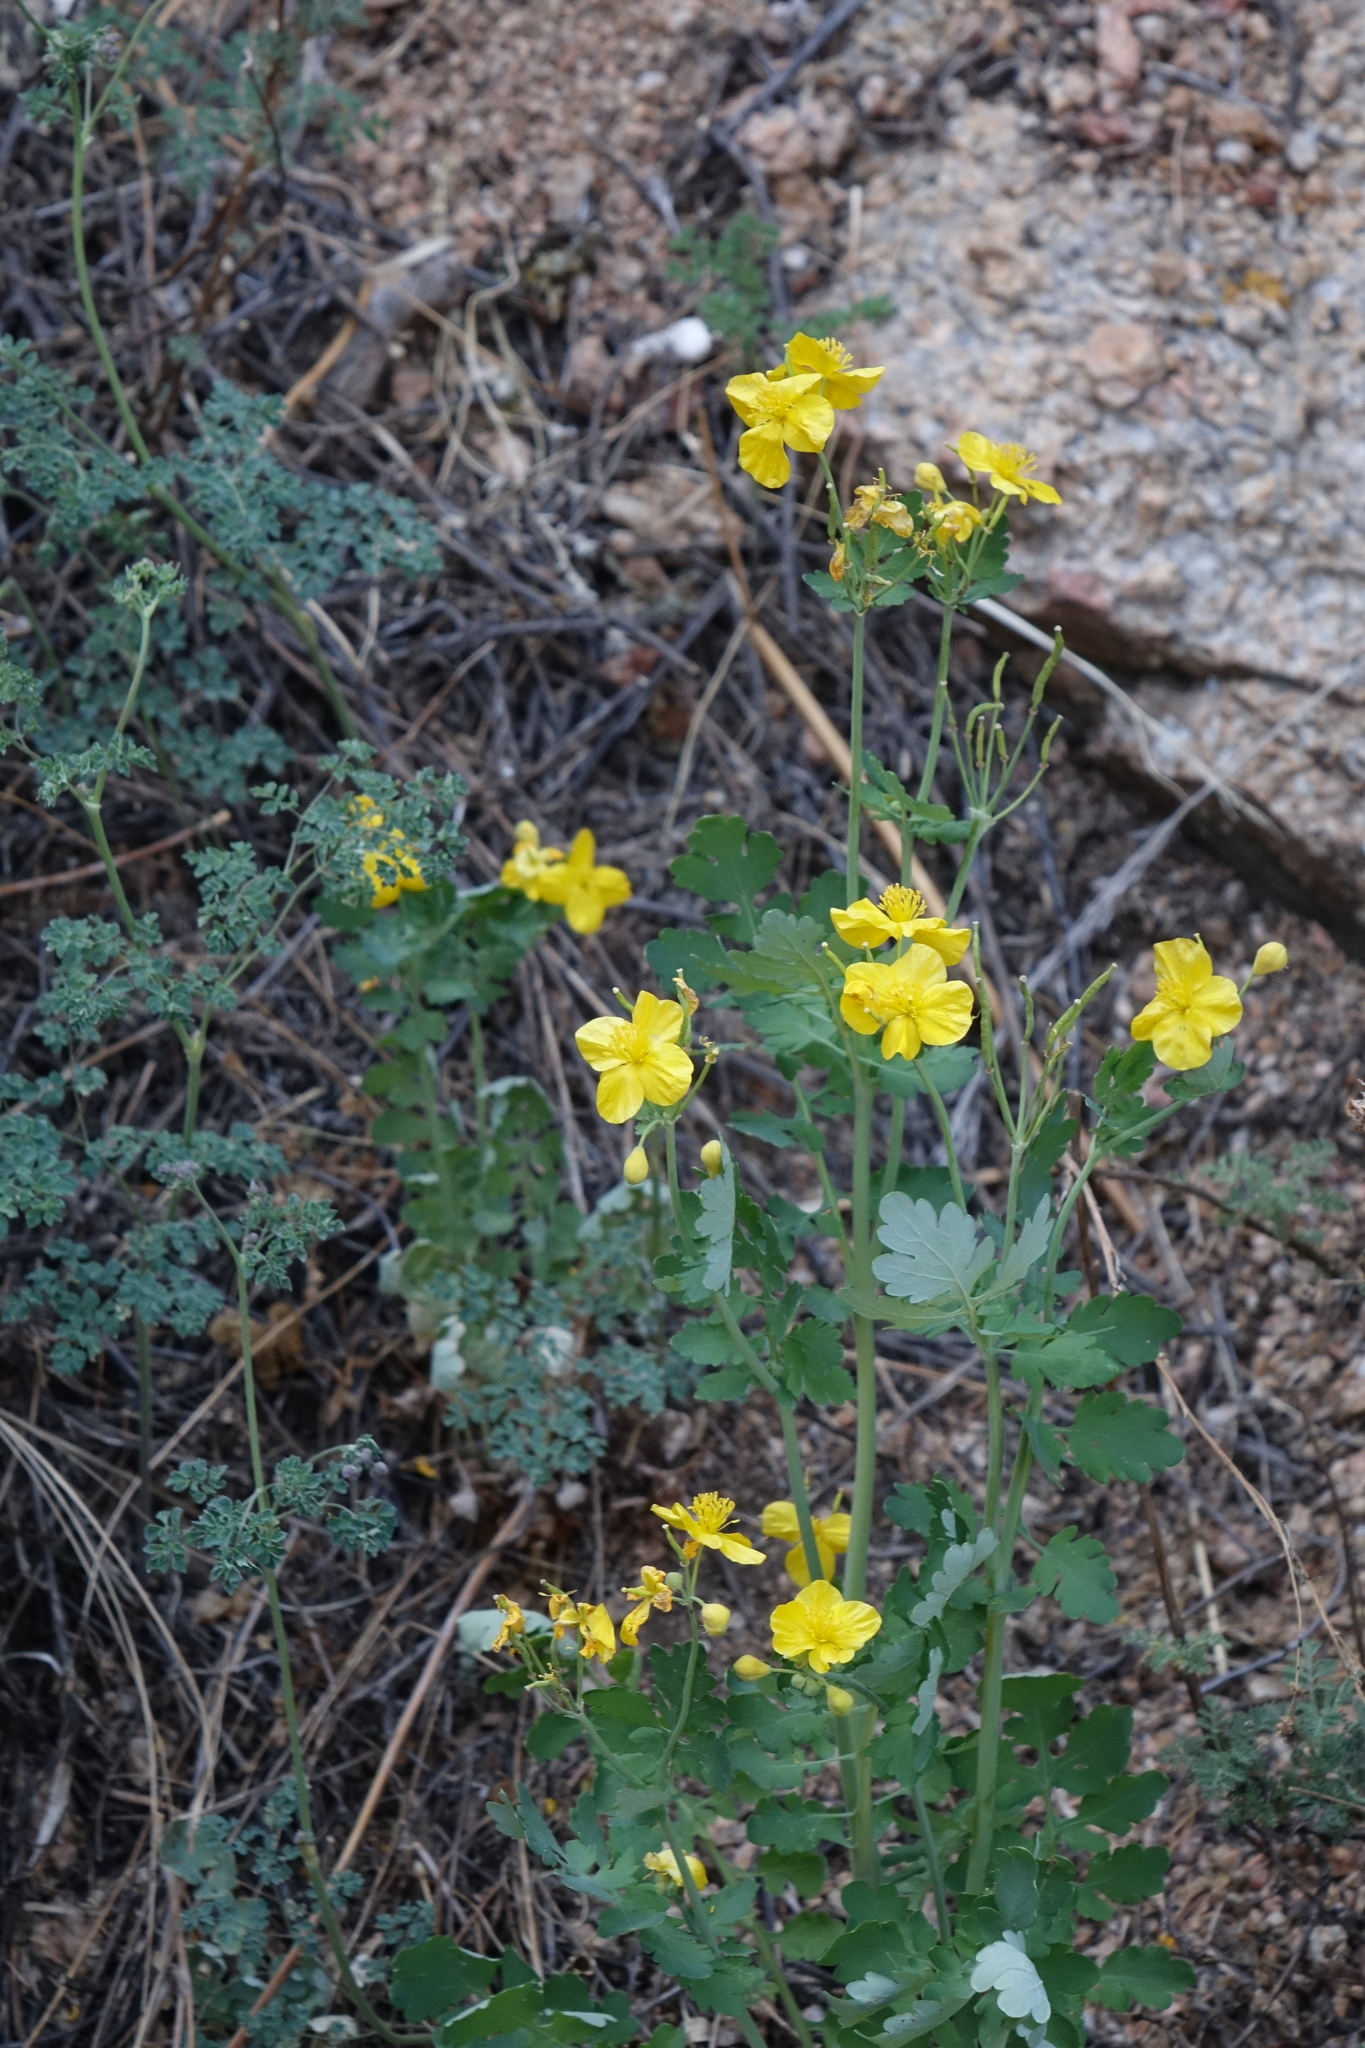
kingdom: Plantae
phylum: Tracheophyta
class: Magnoliopsida
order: Ranunculales
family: Papaveraceae
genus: Chelidonium
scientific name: Chelidonium majus
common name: Greater celandine
